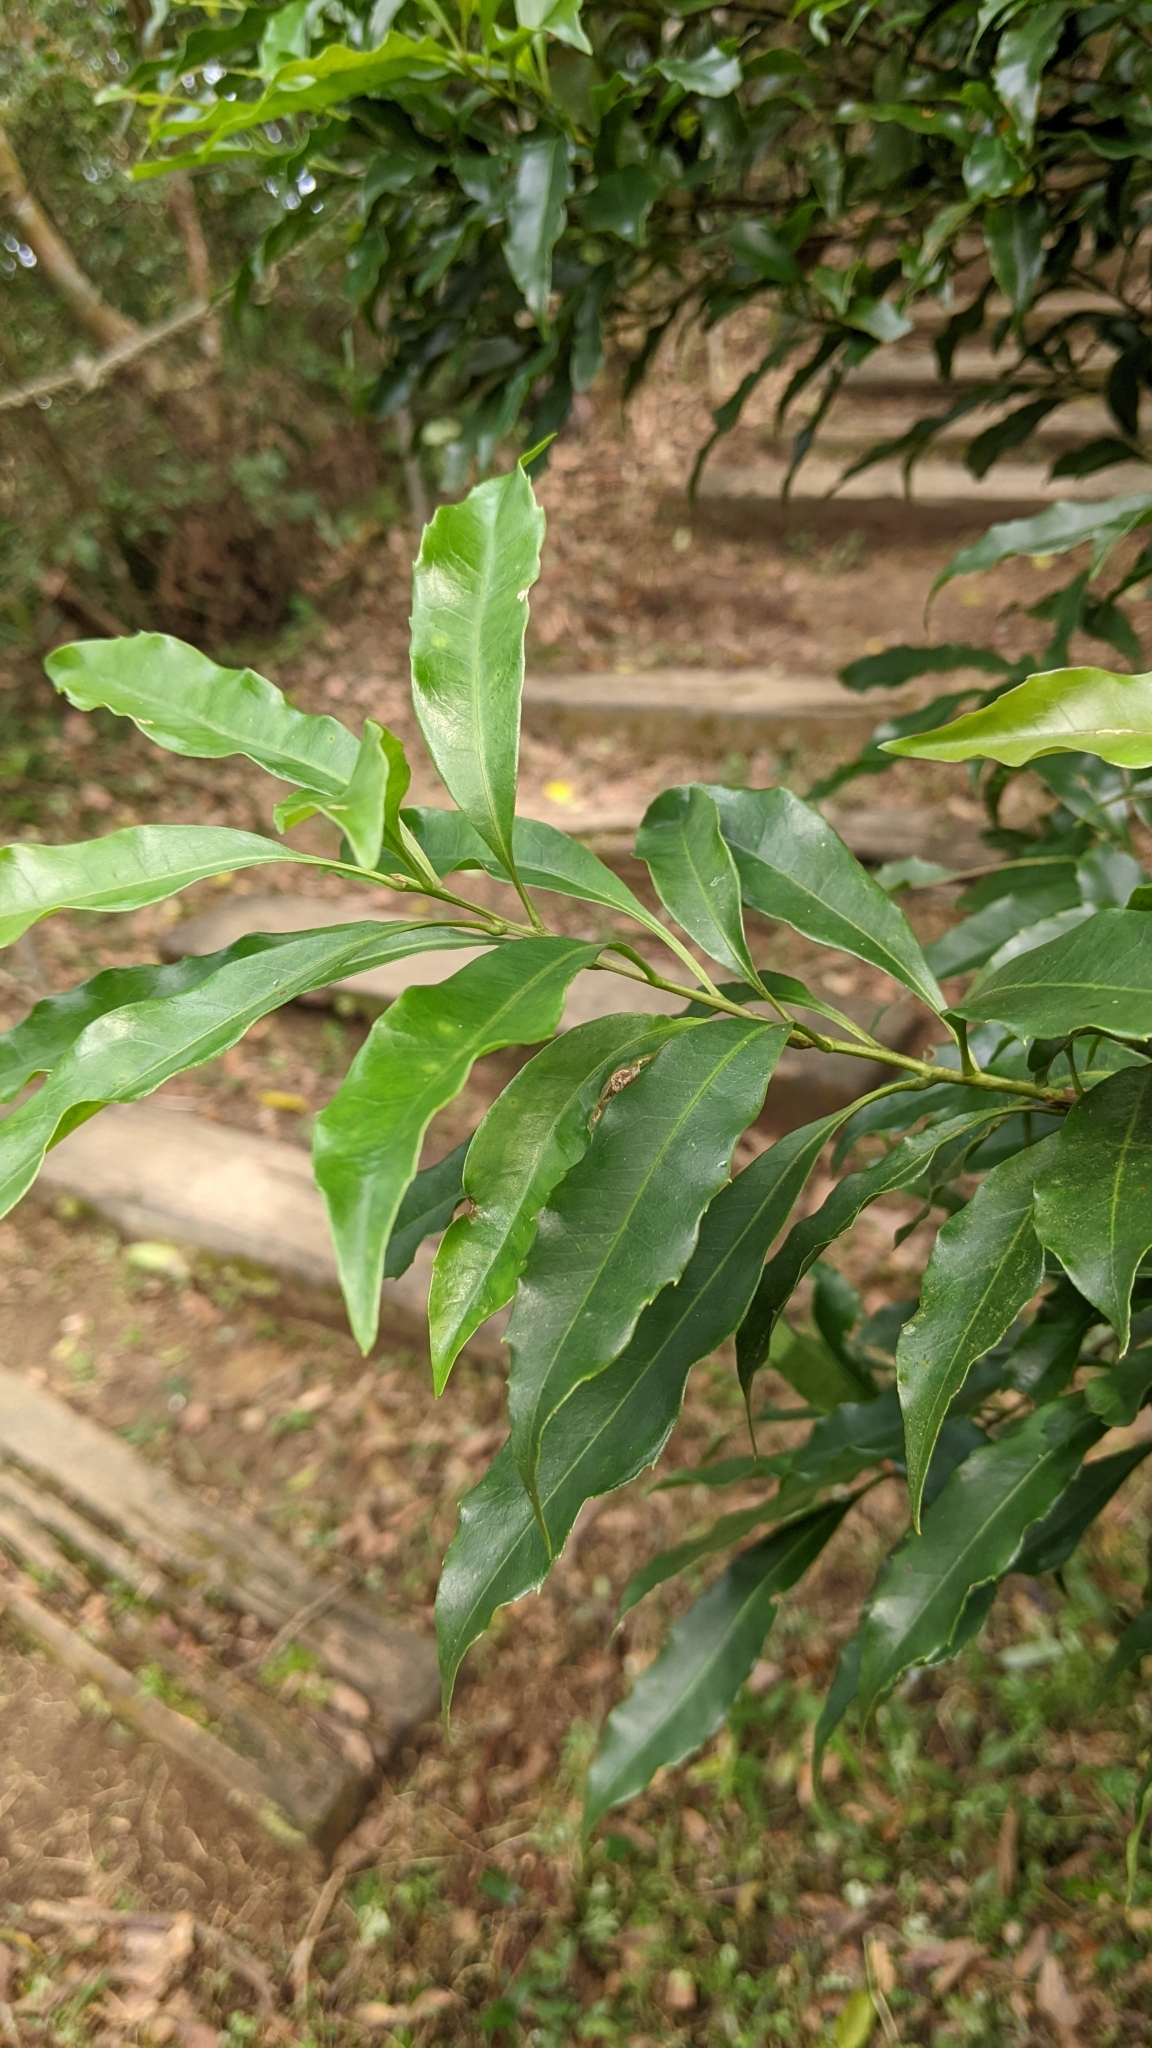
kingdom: Plantae
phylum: Tracheophyta
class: Magnoliopsida
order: Proteales
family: Proteaceae
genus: Helicia
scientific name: Helicia cochinchinensis
